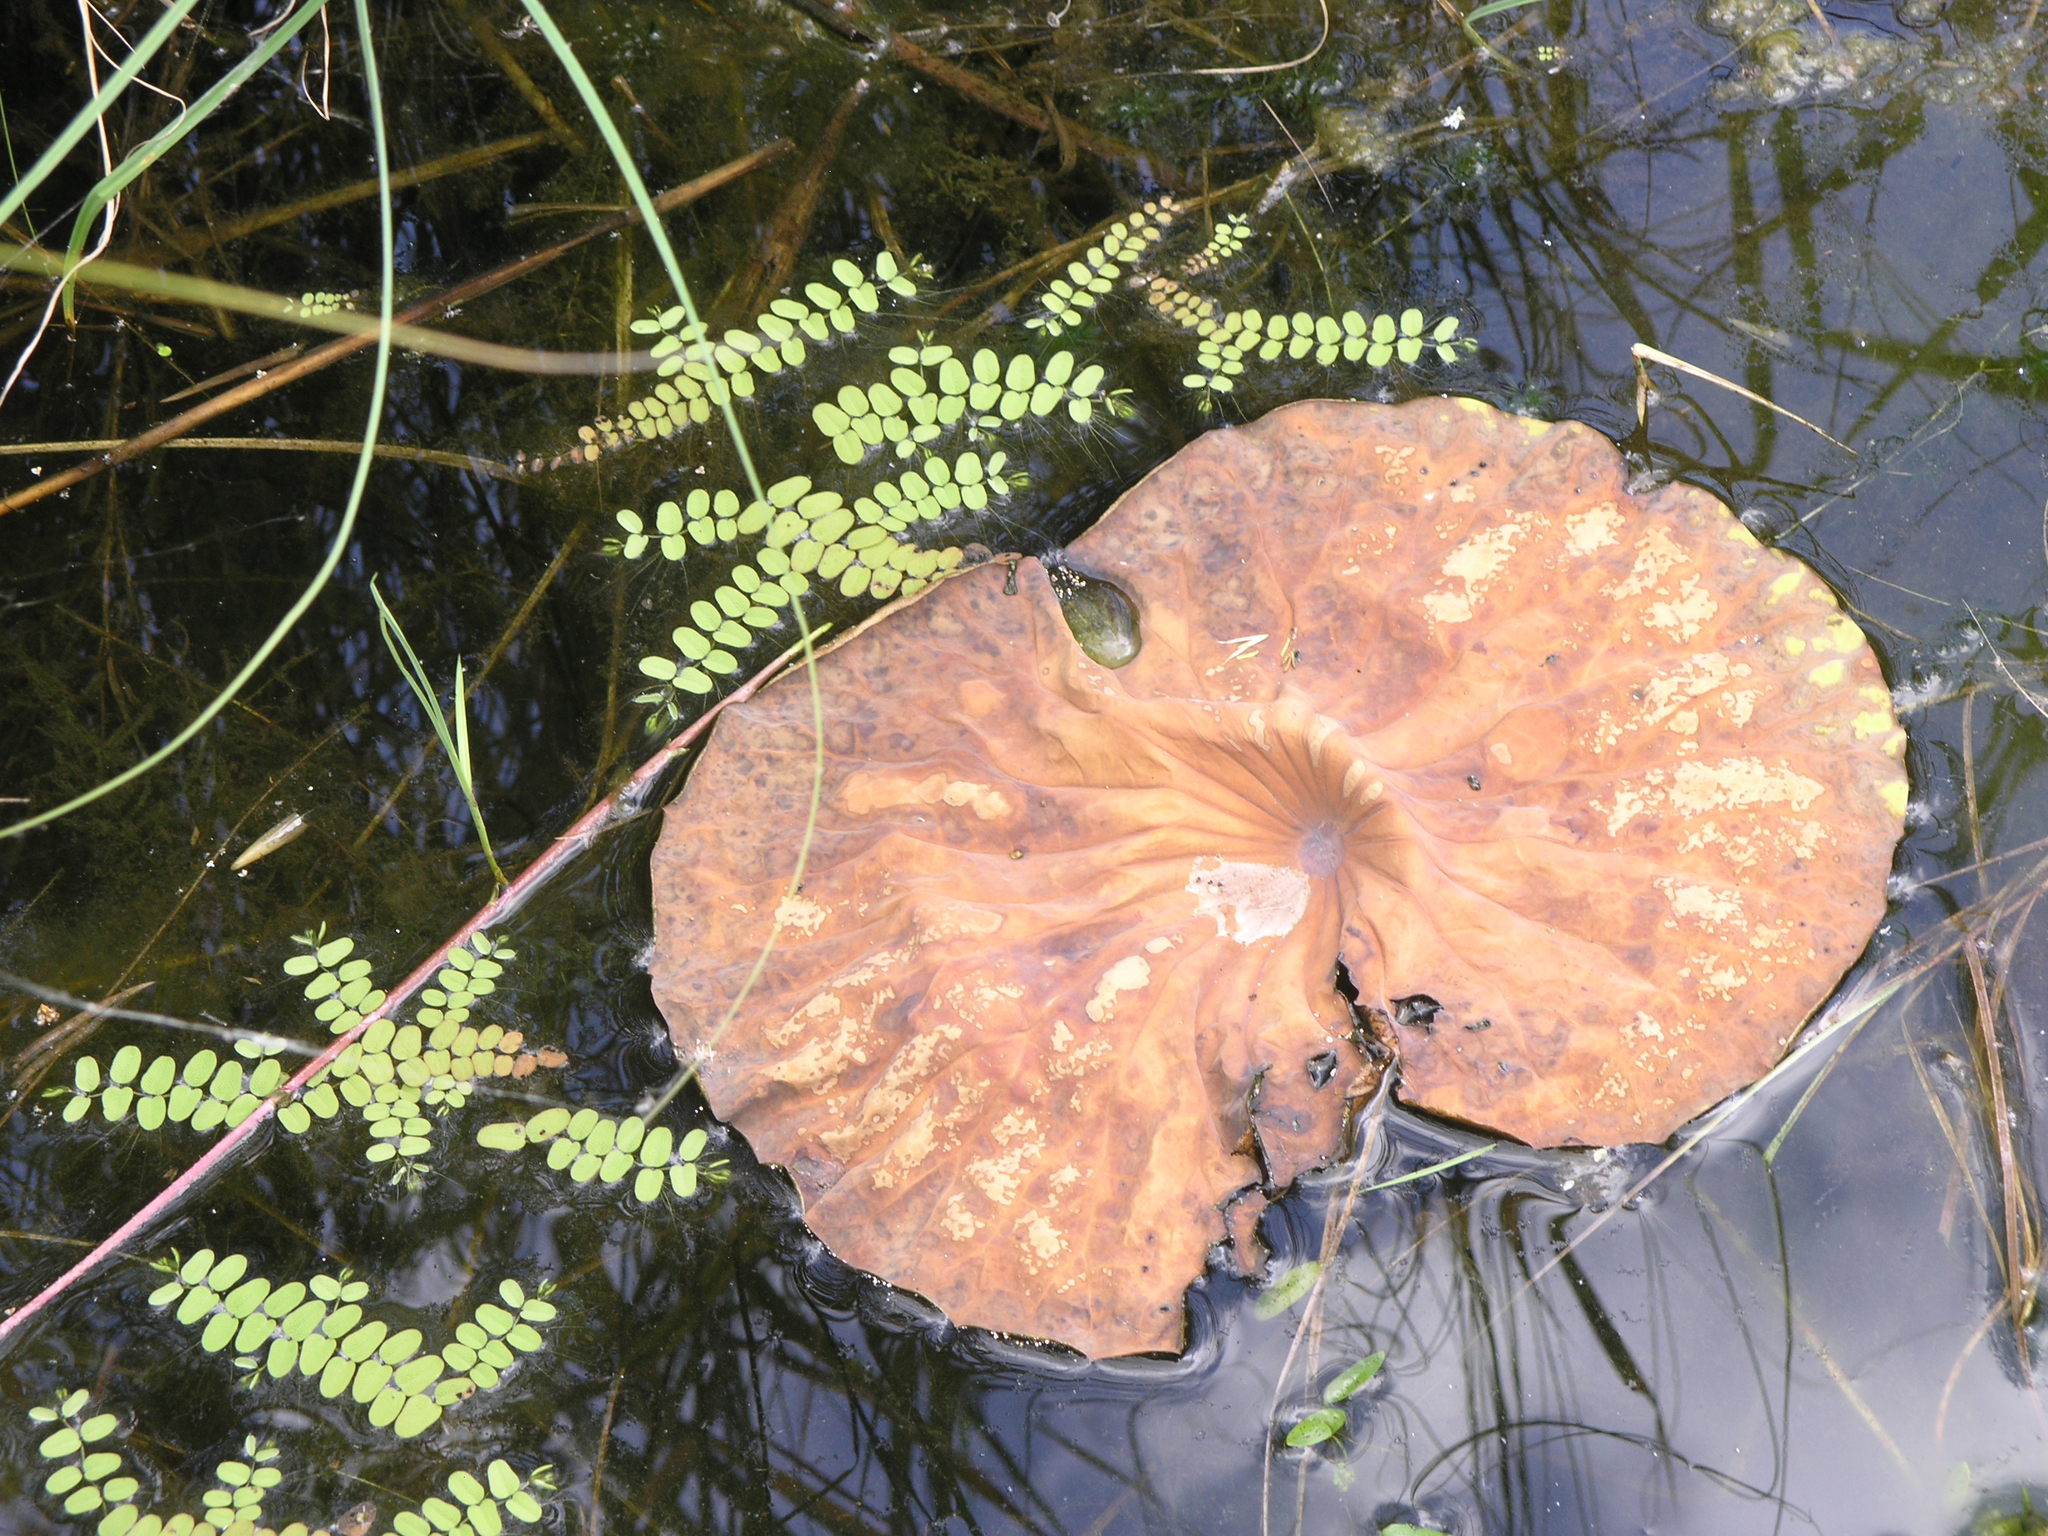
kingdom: Plantae
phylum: Tracheophyta
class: Polypodiopsida
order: Salviniales
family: Salviniaceae
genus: Salvinia
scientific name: Salvinia natans
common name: Floating fern
